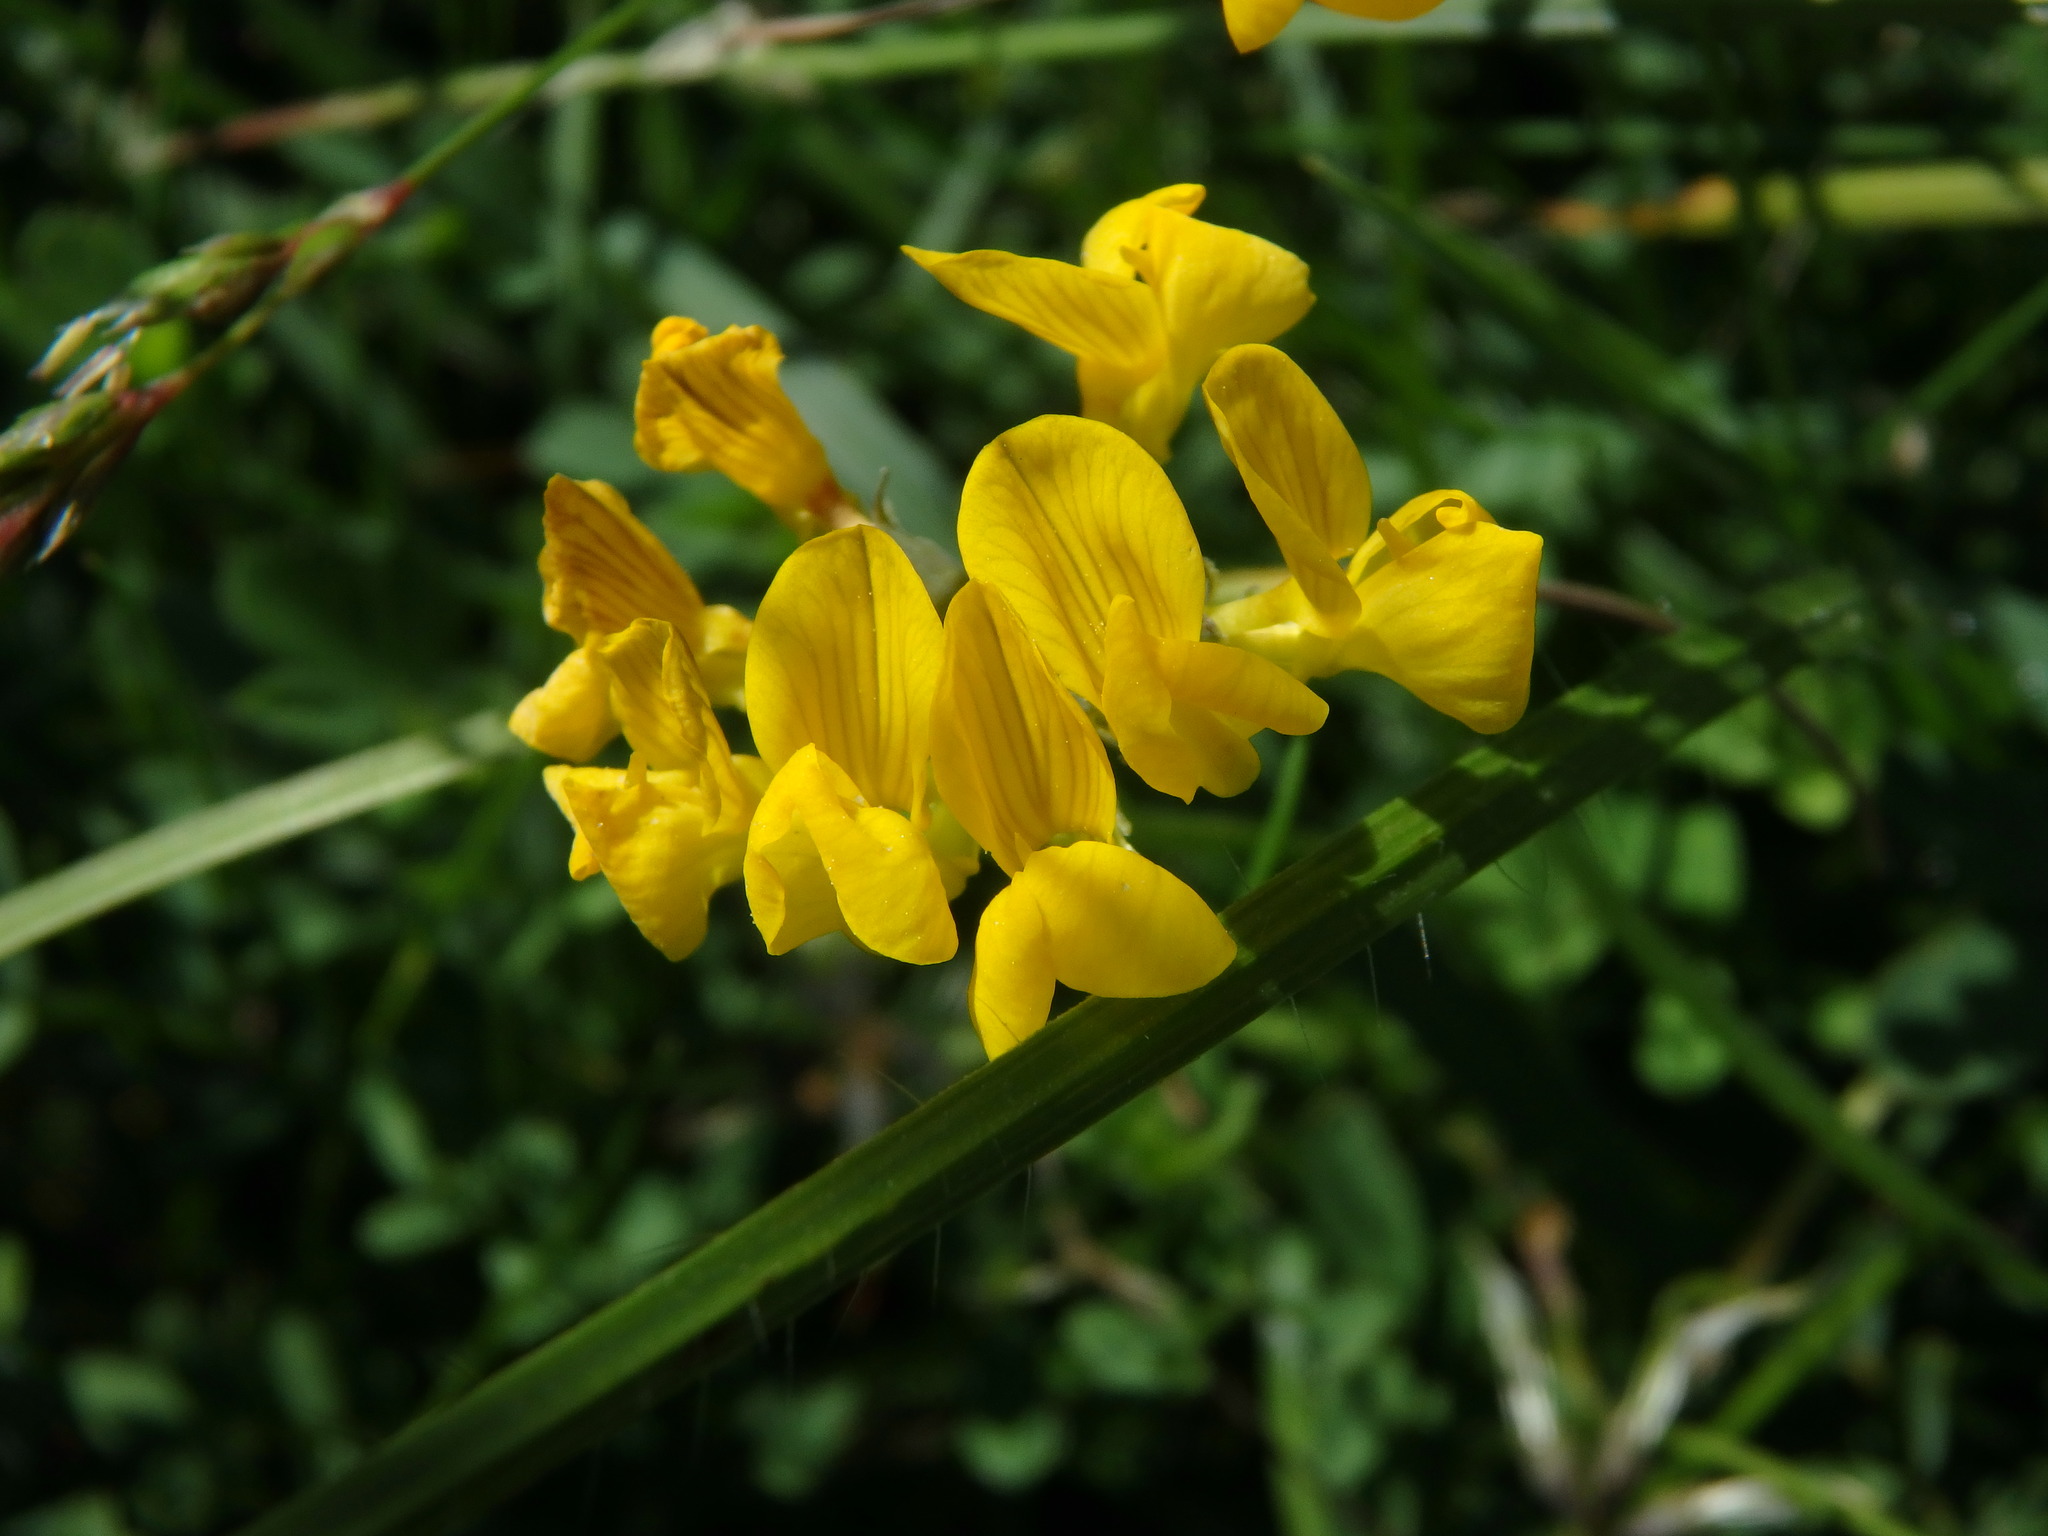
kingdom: Plantae
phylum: Tracheophyta
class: Magnoliopsida
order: Fabales
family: Fabaceae
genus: Hippocrepis
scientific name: Hippocrepis comosa
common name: Horseshoe vetch
